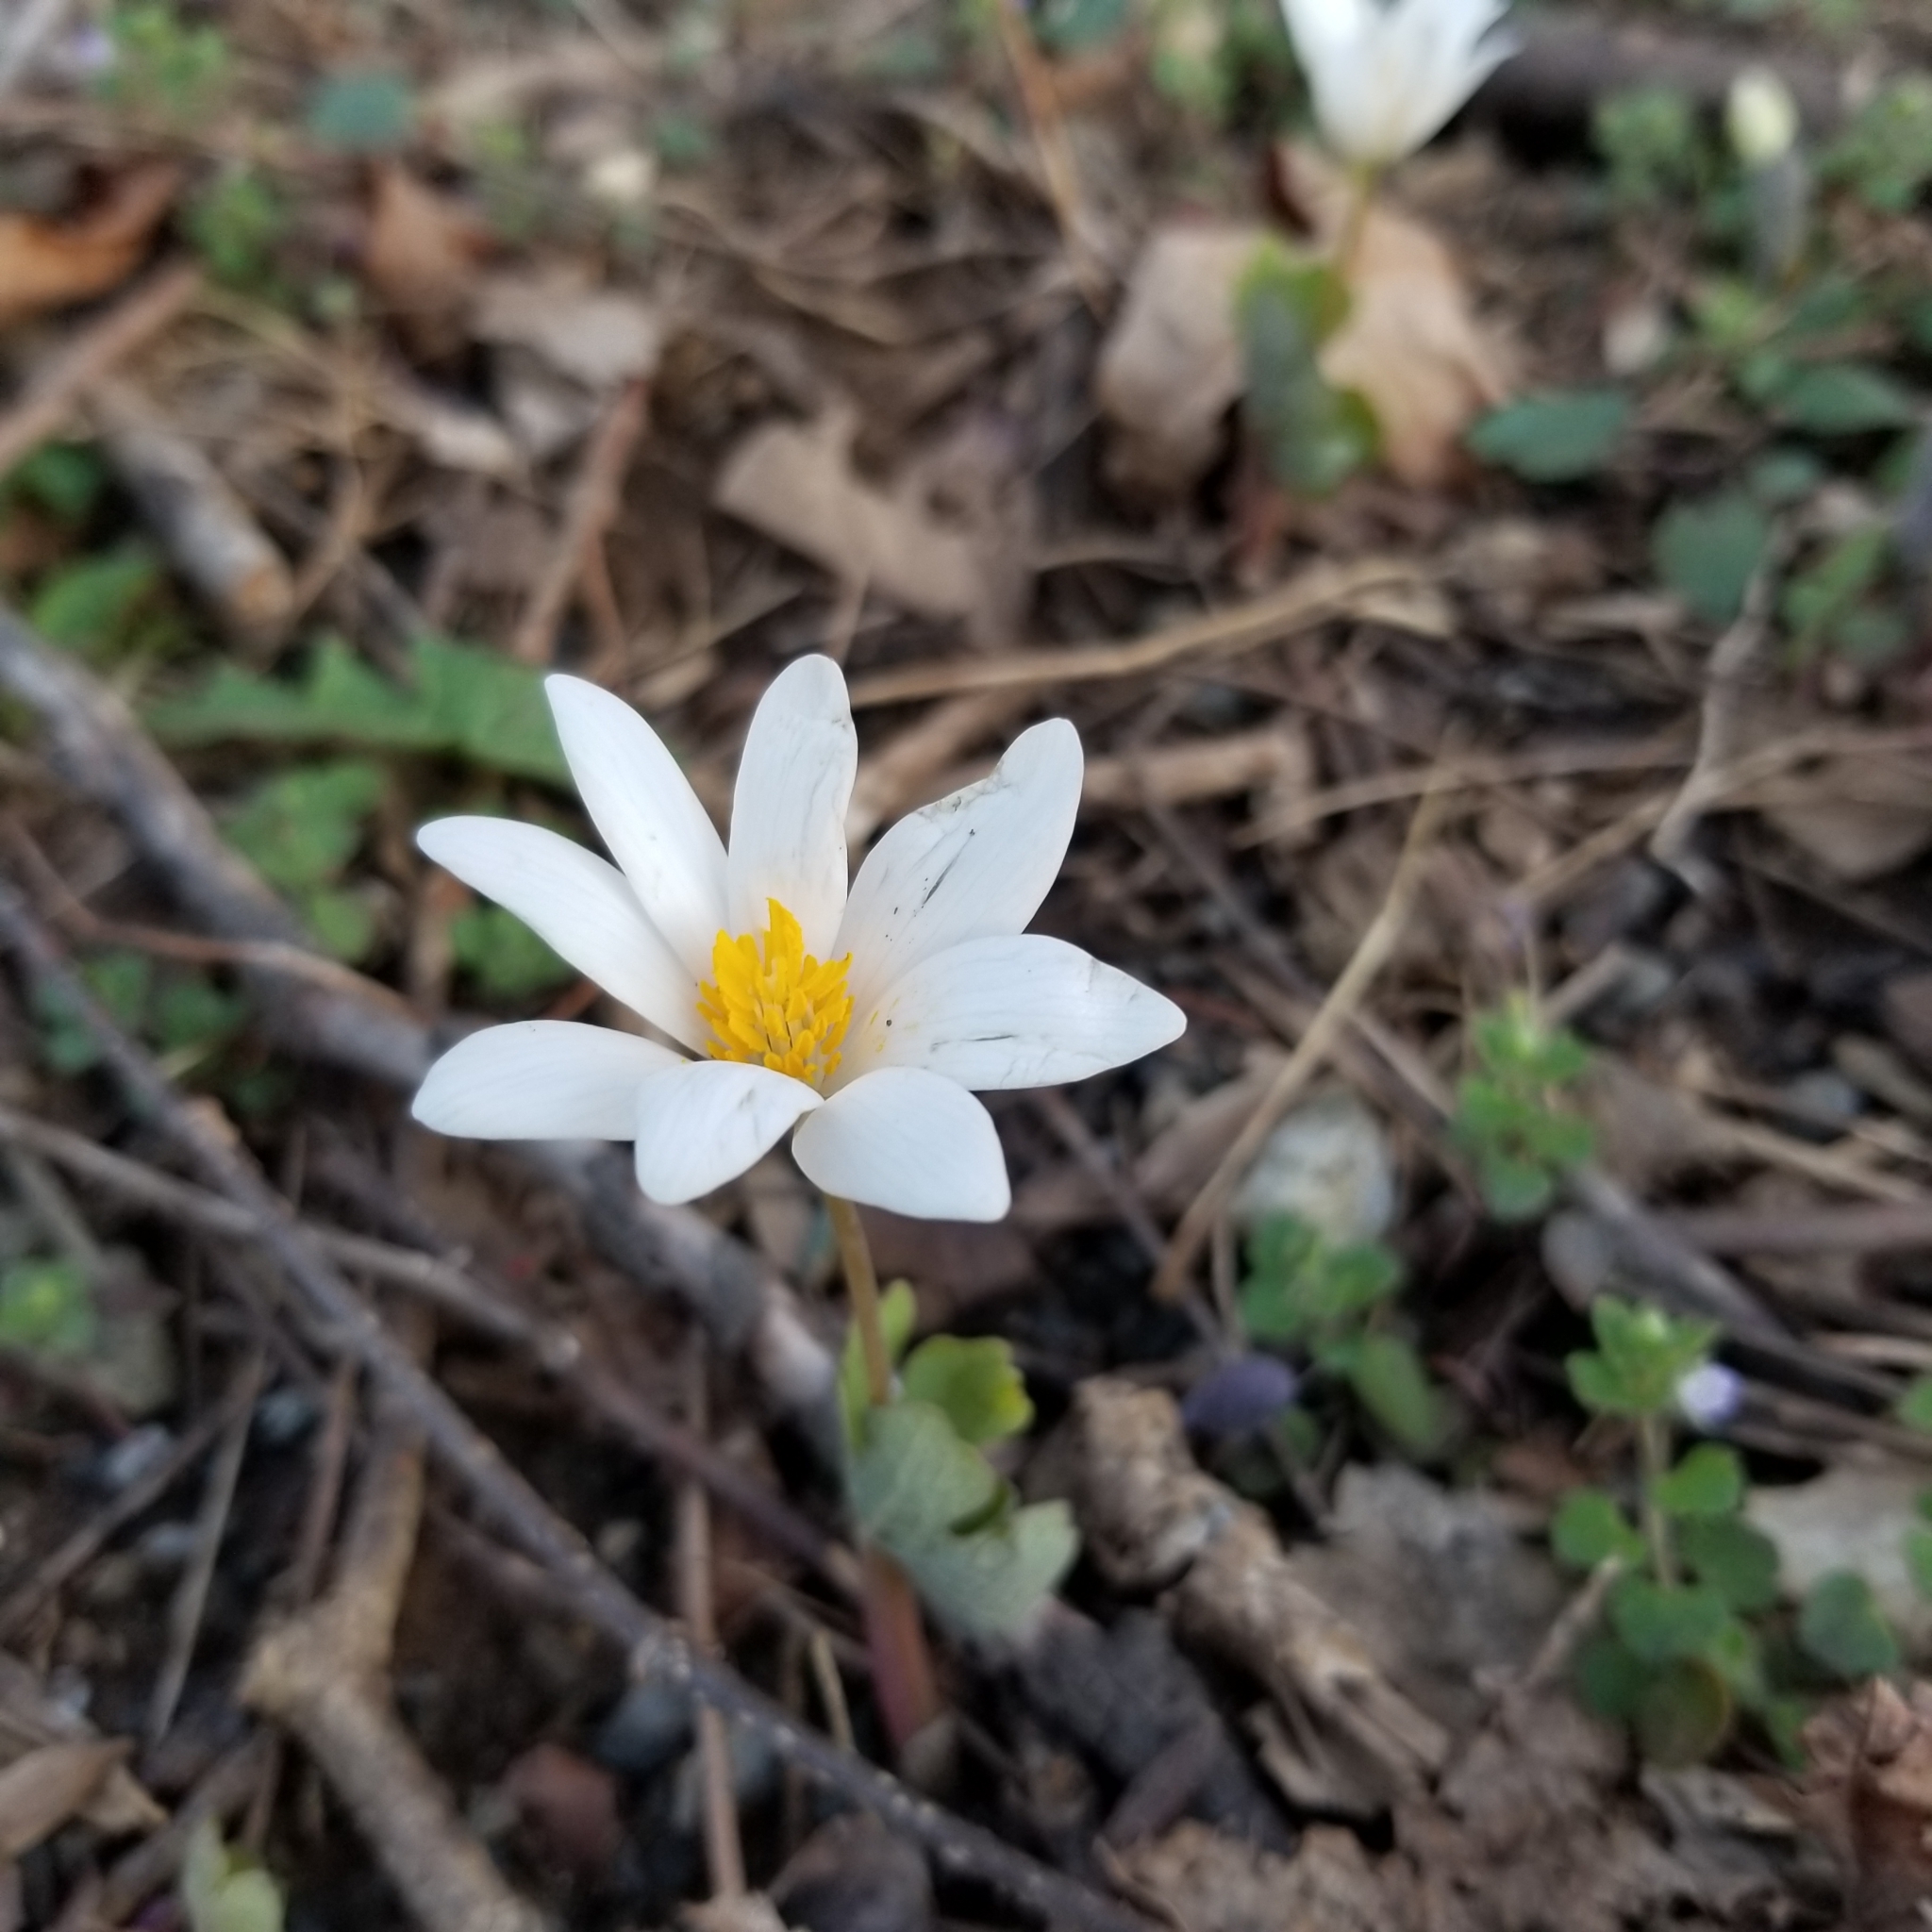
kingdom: Plantae
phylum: Tracheophyta
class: Magnoliopsida
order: Ranunculales
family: Papaveraceae
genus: Sanguinaria
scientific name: Sanguinaria canadensis
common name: Bloodroot
